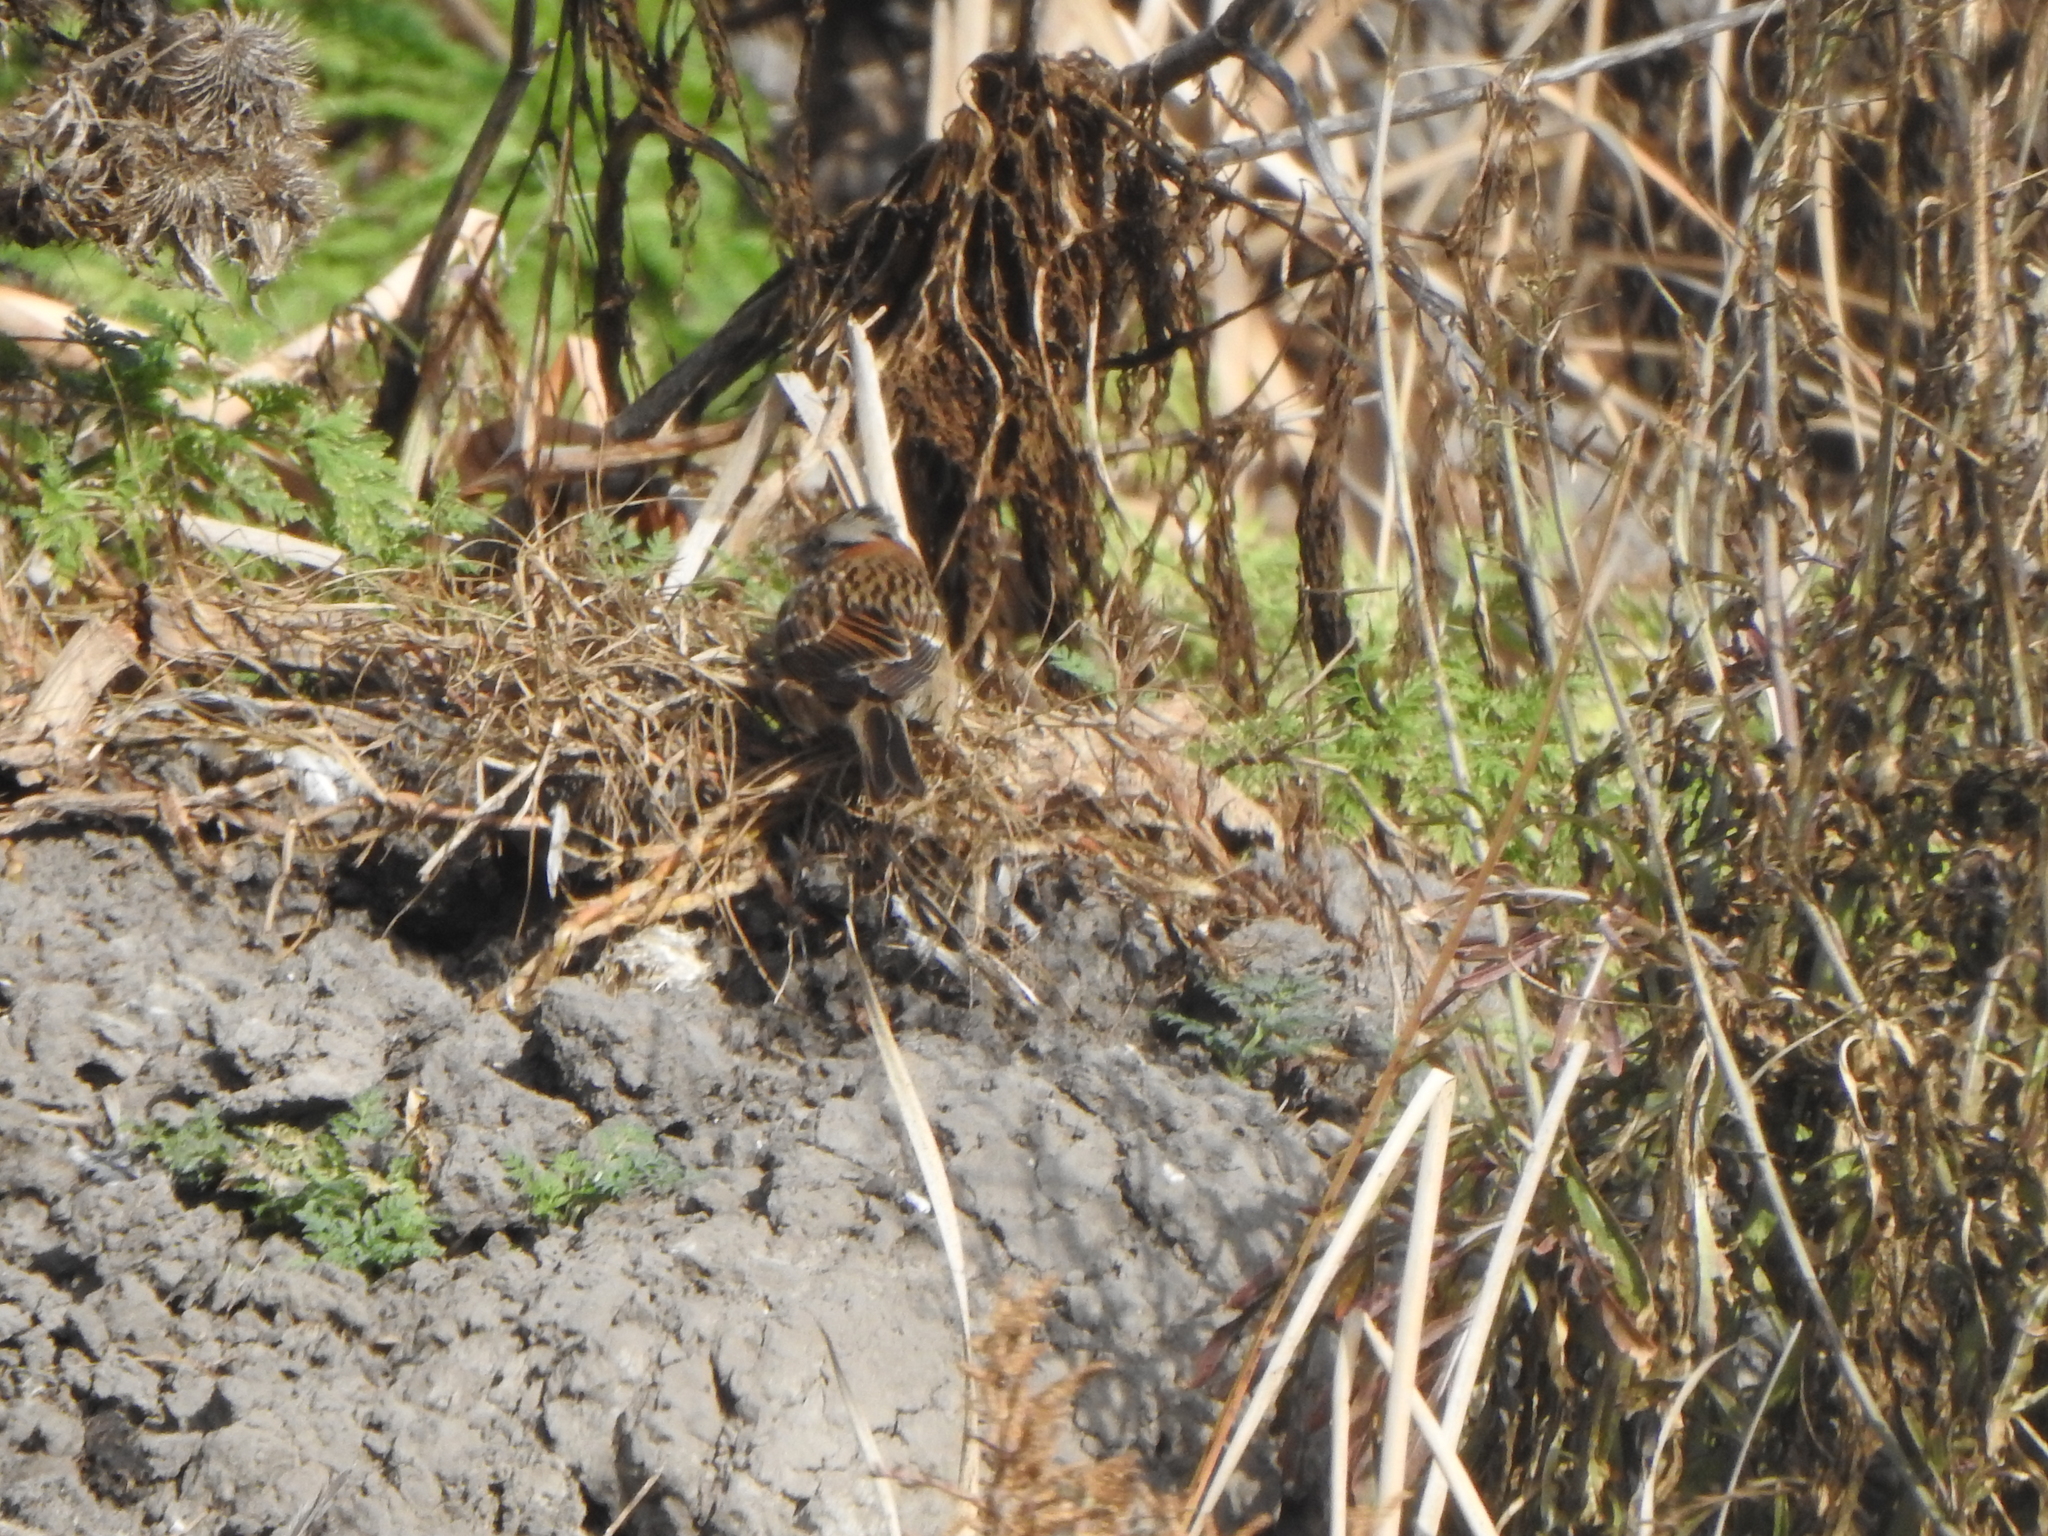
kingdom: Animalia
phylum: Chordata
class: Aves
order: Passeriformes
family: Passerellidae
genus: Zonotrichia
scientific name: Zonotrichia capensis
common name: Rufous-collared sparrow
